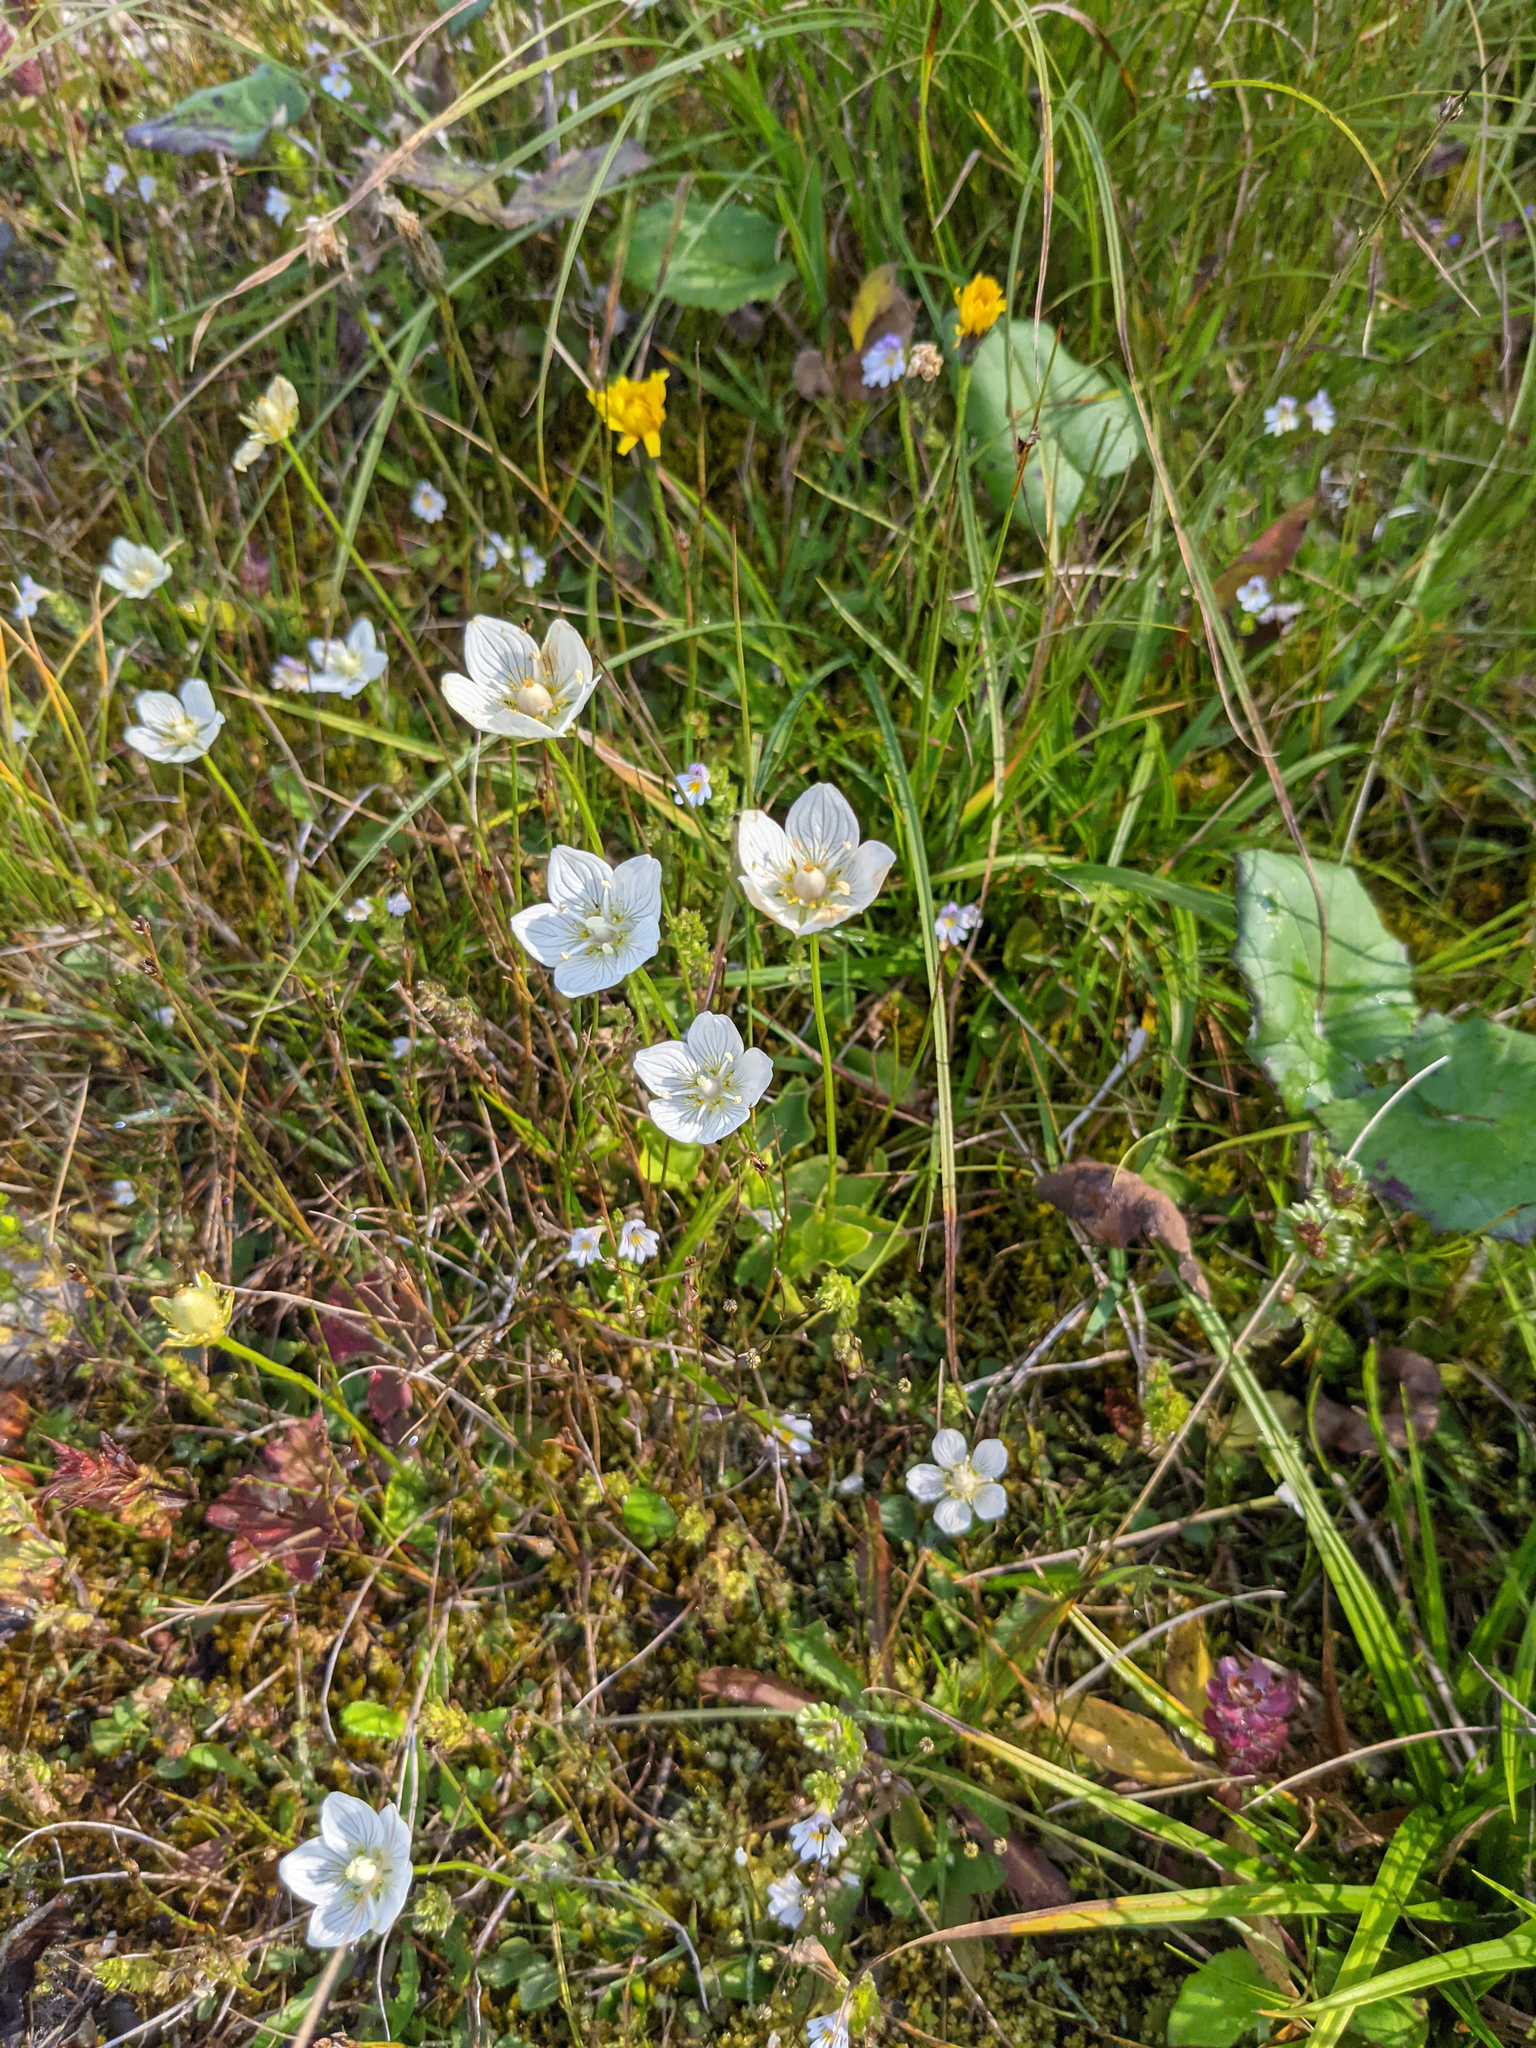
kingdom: Plantae
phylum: Tracheophyta
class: Magnoliopsida
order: Celastrales
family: Parnassiaceae
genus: Parnassia
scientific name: Parnassia palustris
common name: Grass-of-parnassus
